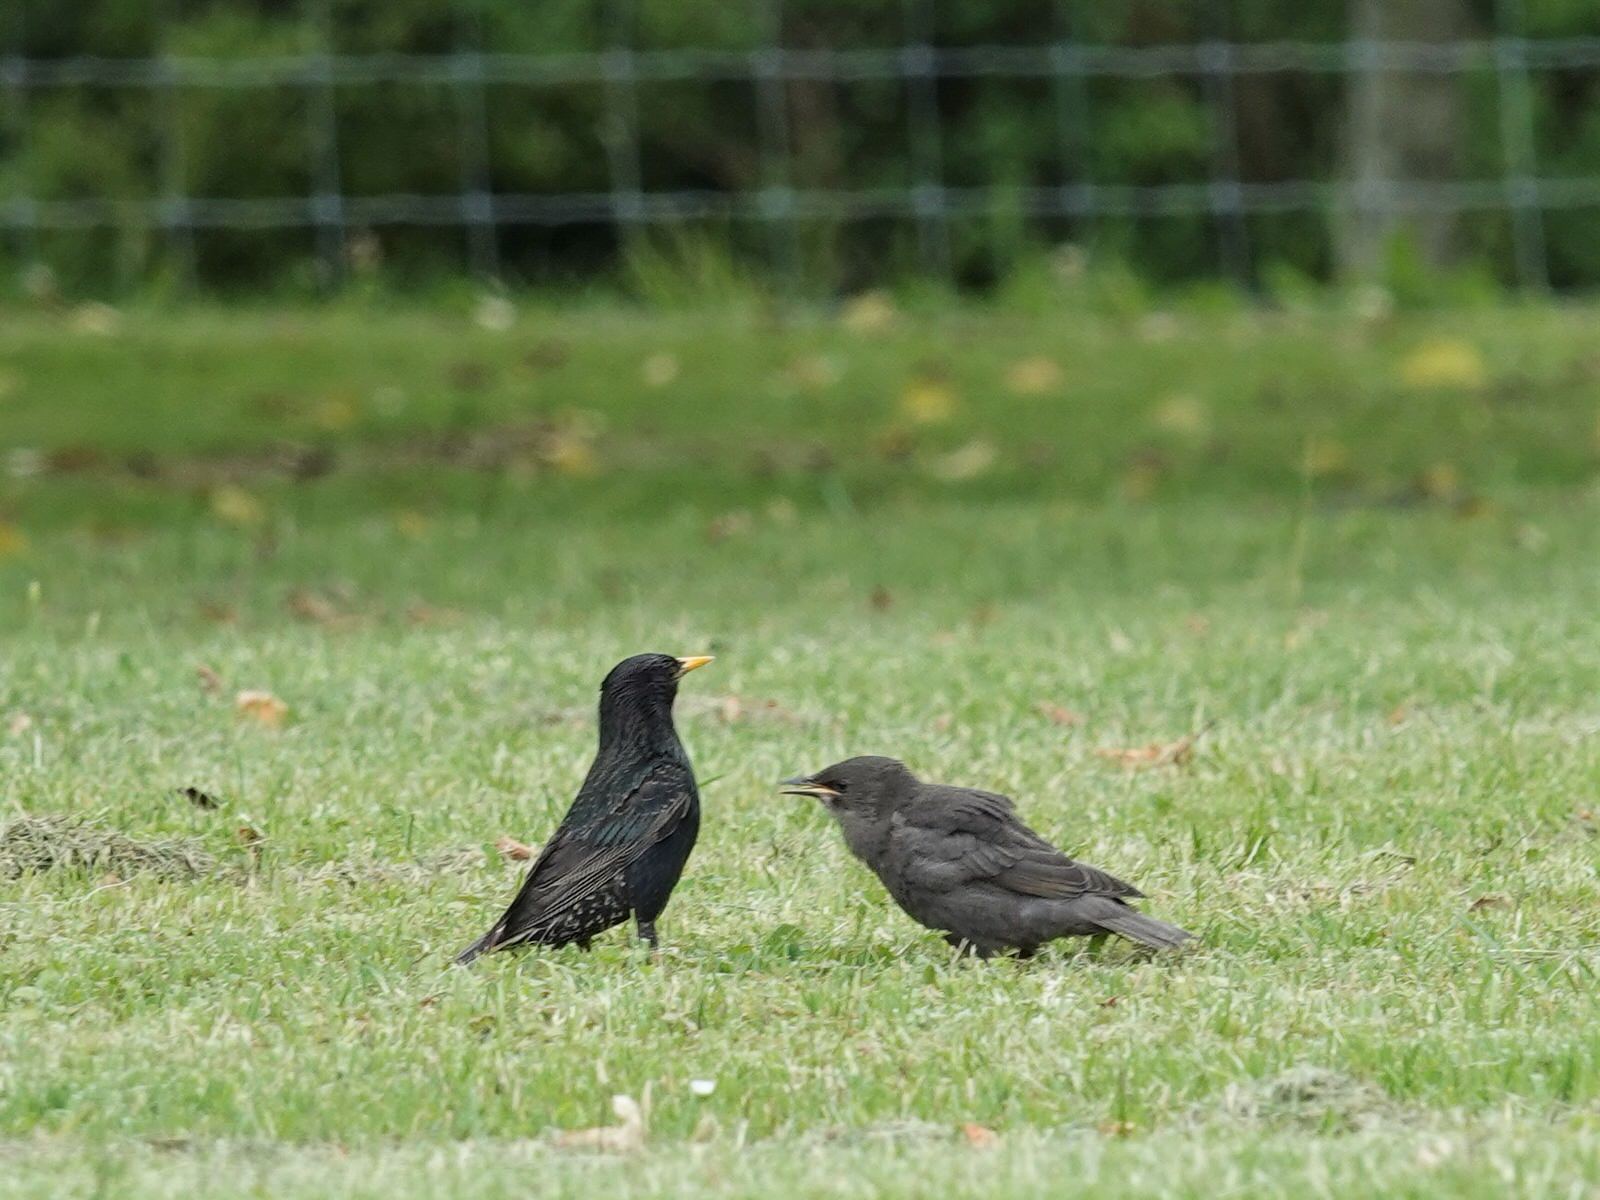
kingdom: Animalia
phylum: Chordata
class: Aves
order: Passeriformes
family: Sturnidae
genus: Sturnus
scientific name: Sturnus vulgaris
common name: Common starling
